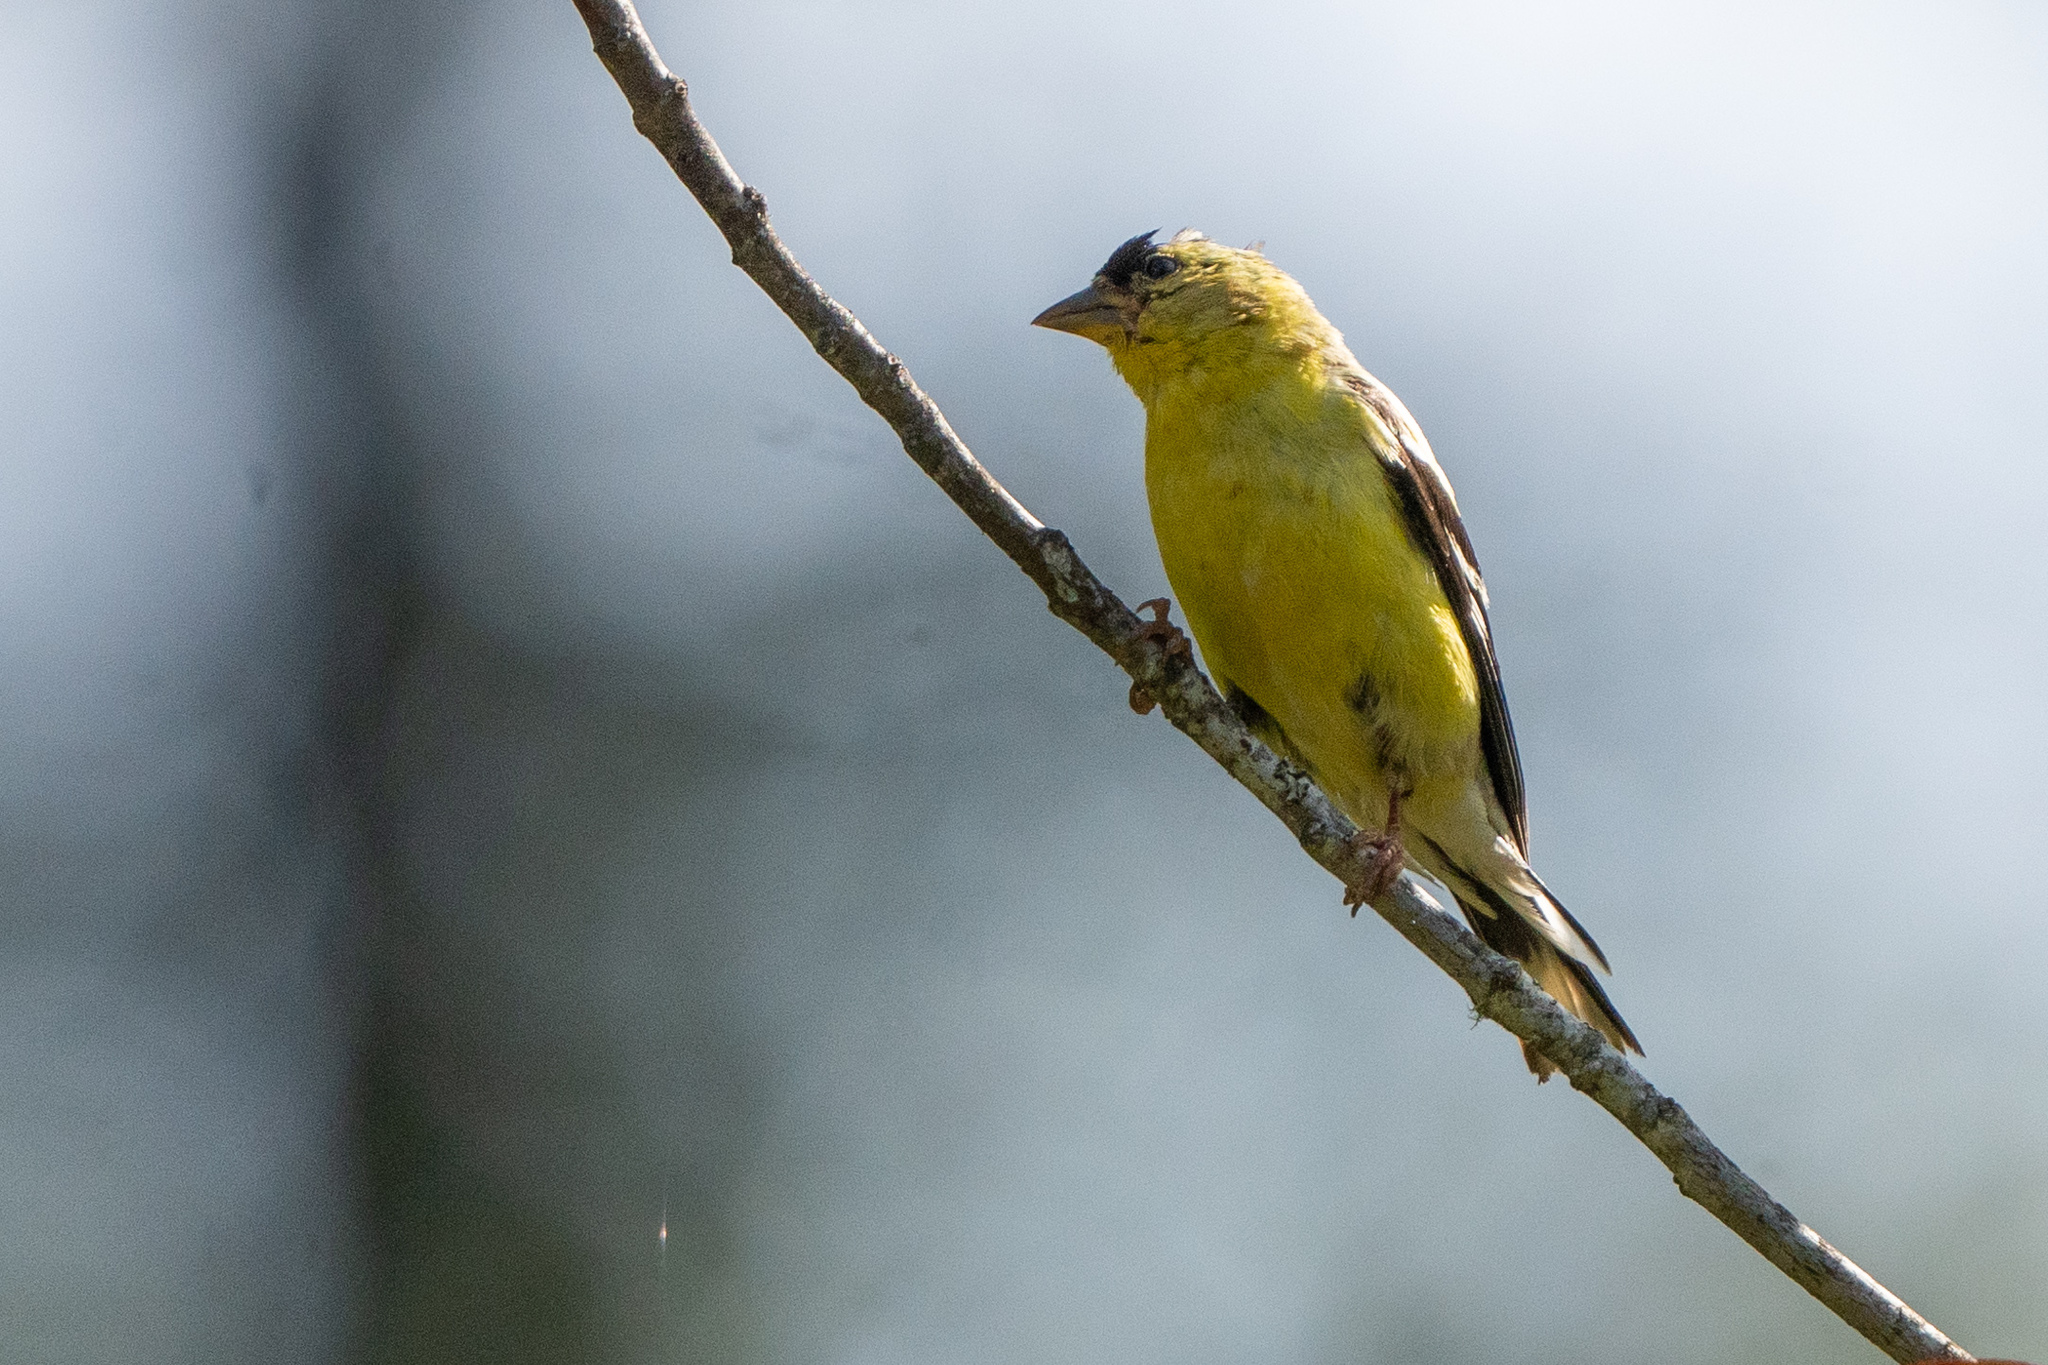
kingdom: Animalia
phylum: Chordata
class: Aves
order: Passeriformes
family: Fringillidae
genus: Spinus
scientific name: Spinus tristis
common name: American goldfinch
